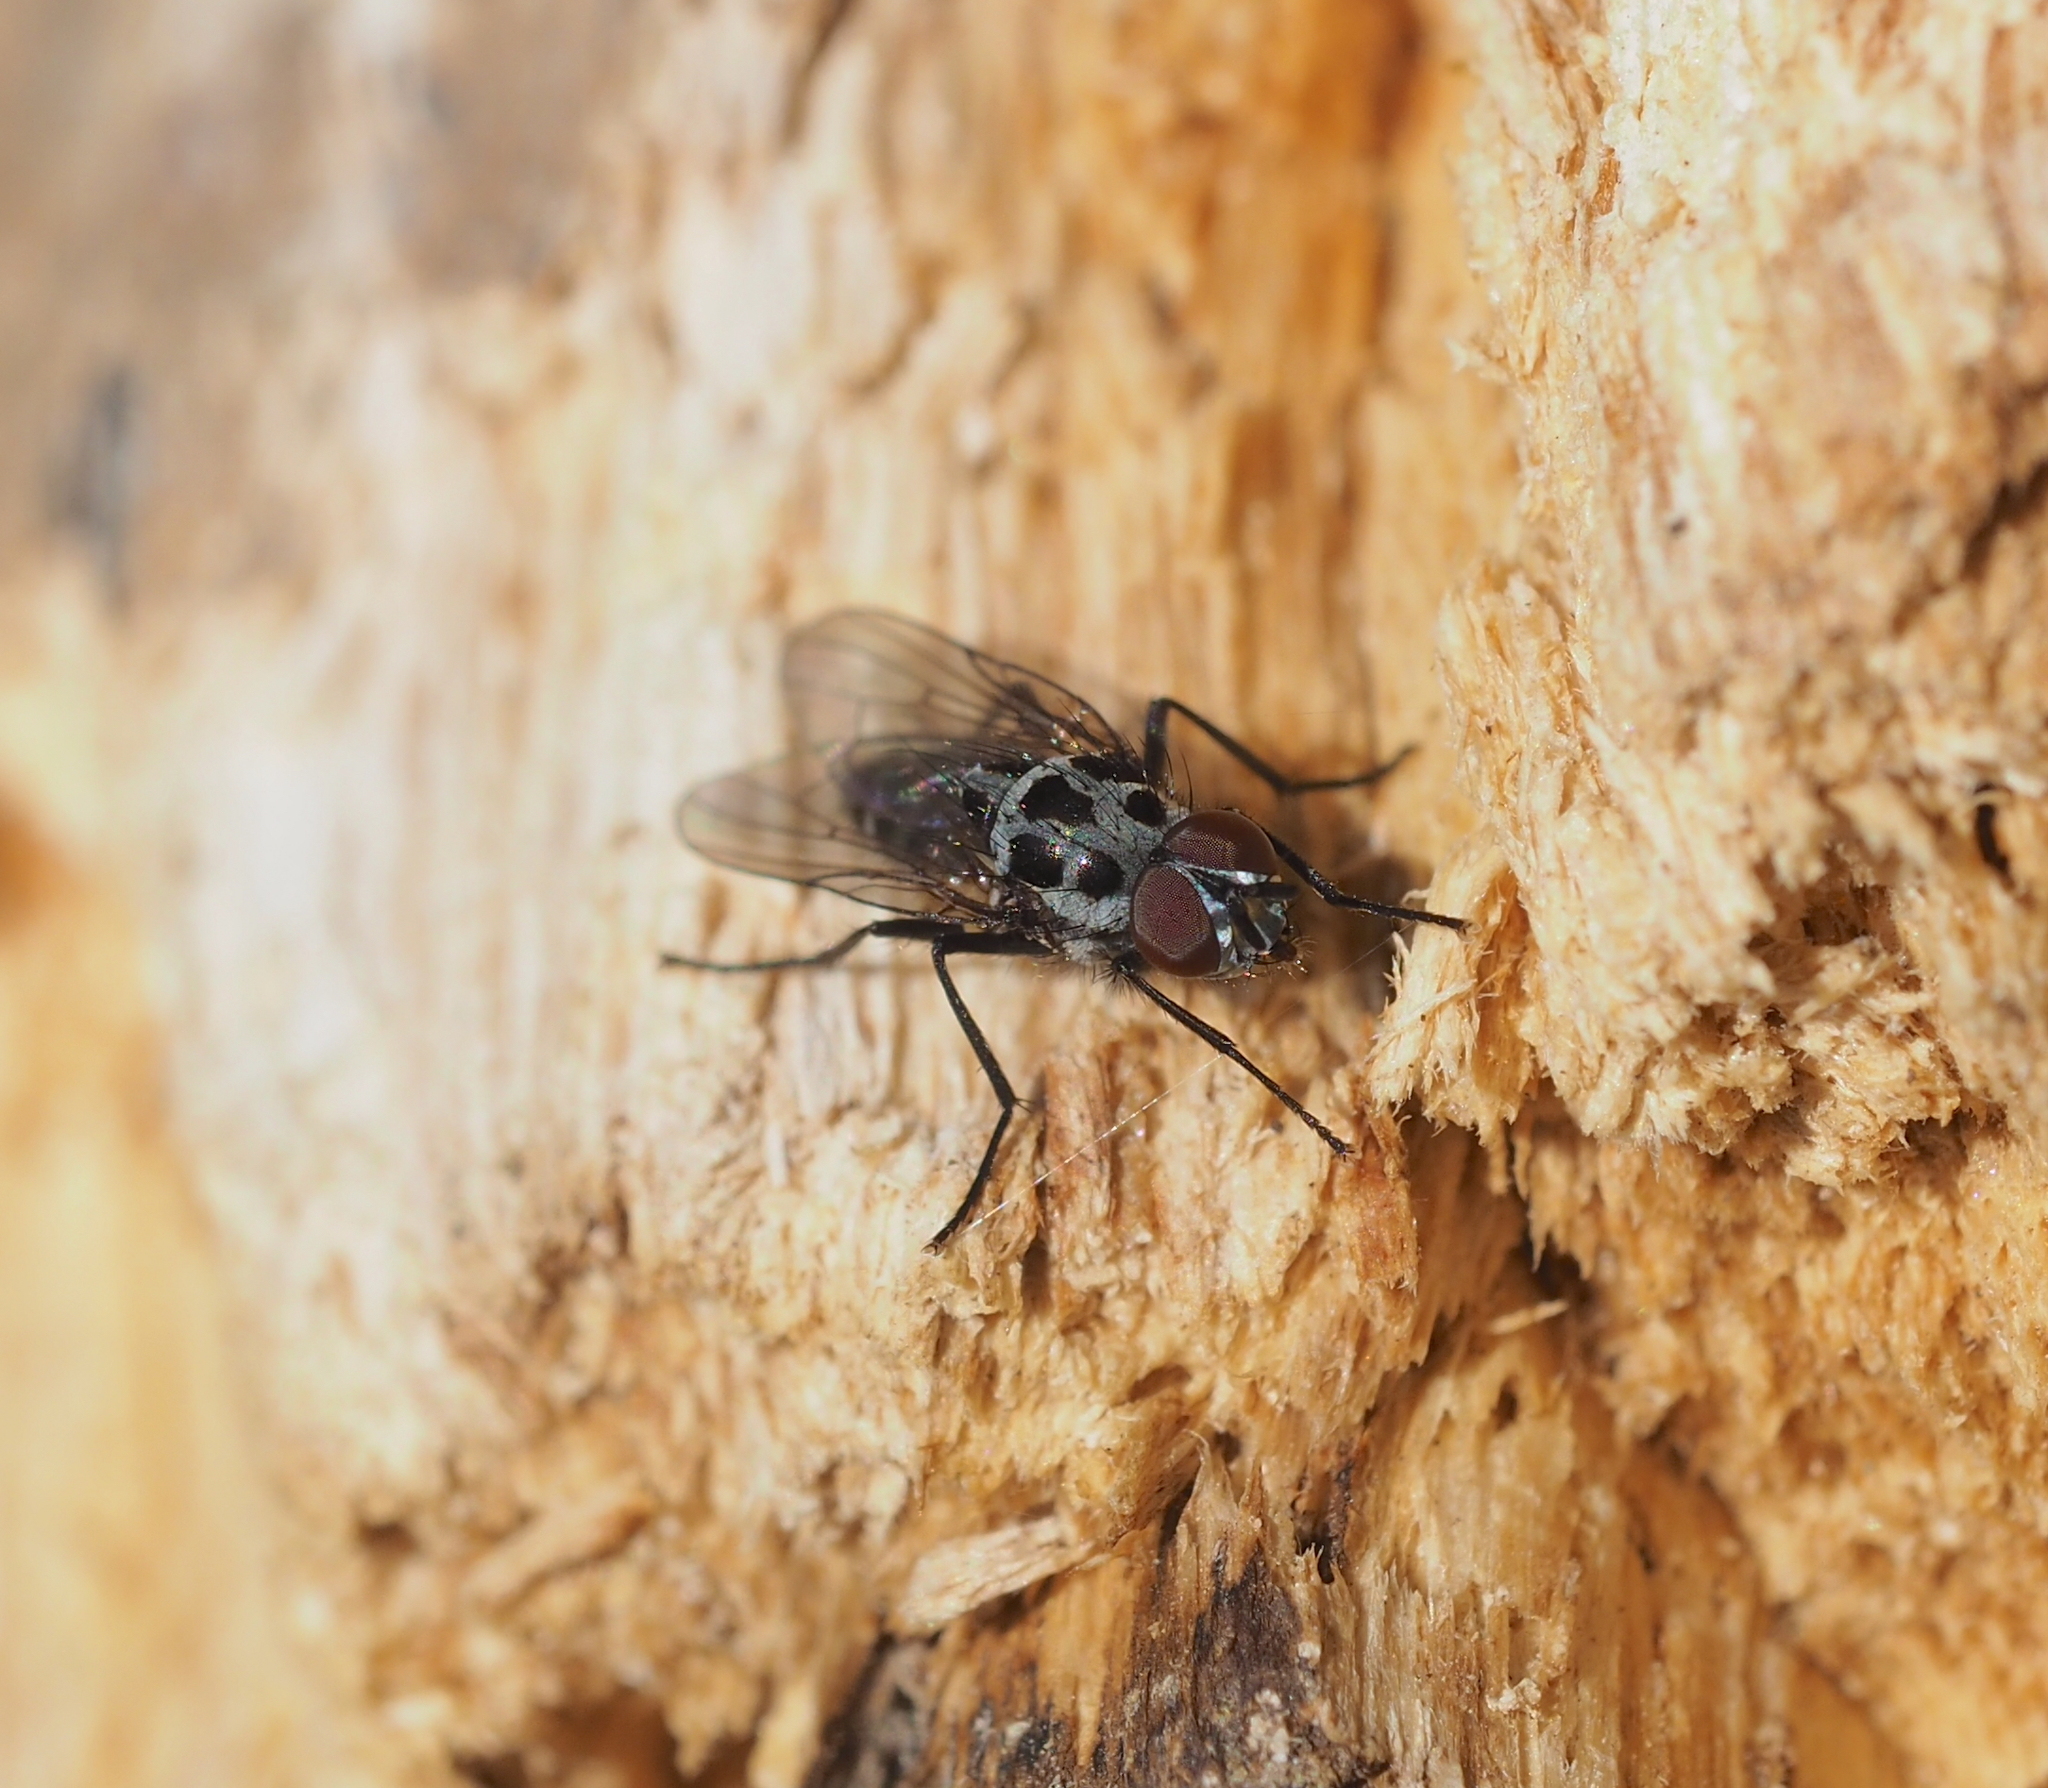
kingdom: Animalia
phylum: Arthropoda
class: Insecta
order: Diptera
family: Anthomyiidae
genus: Anthomyia
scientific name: Anthomyia pluvialis
